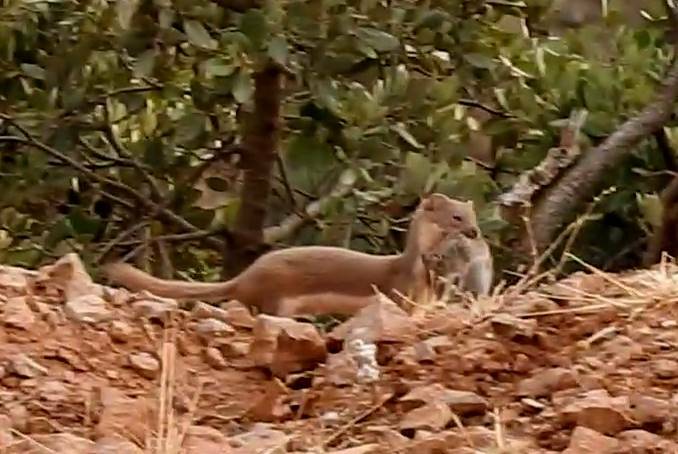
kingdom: Animalia
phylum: Chordata
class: Mammalia
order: Carnivora
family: Mustelidae
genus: Mustela
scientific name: Mustela nivalis
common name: Least weasel
